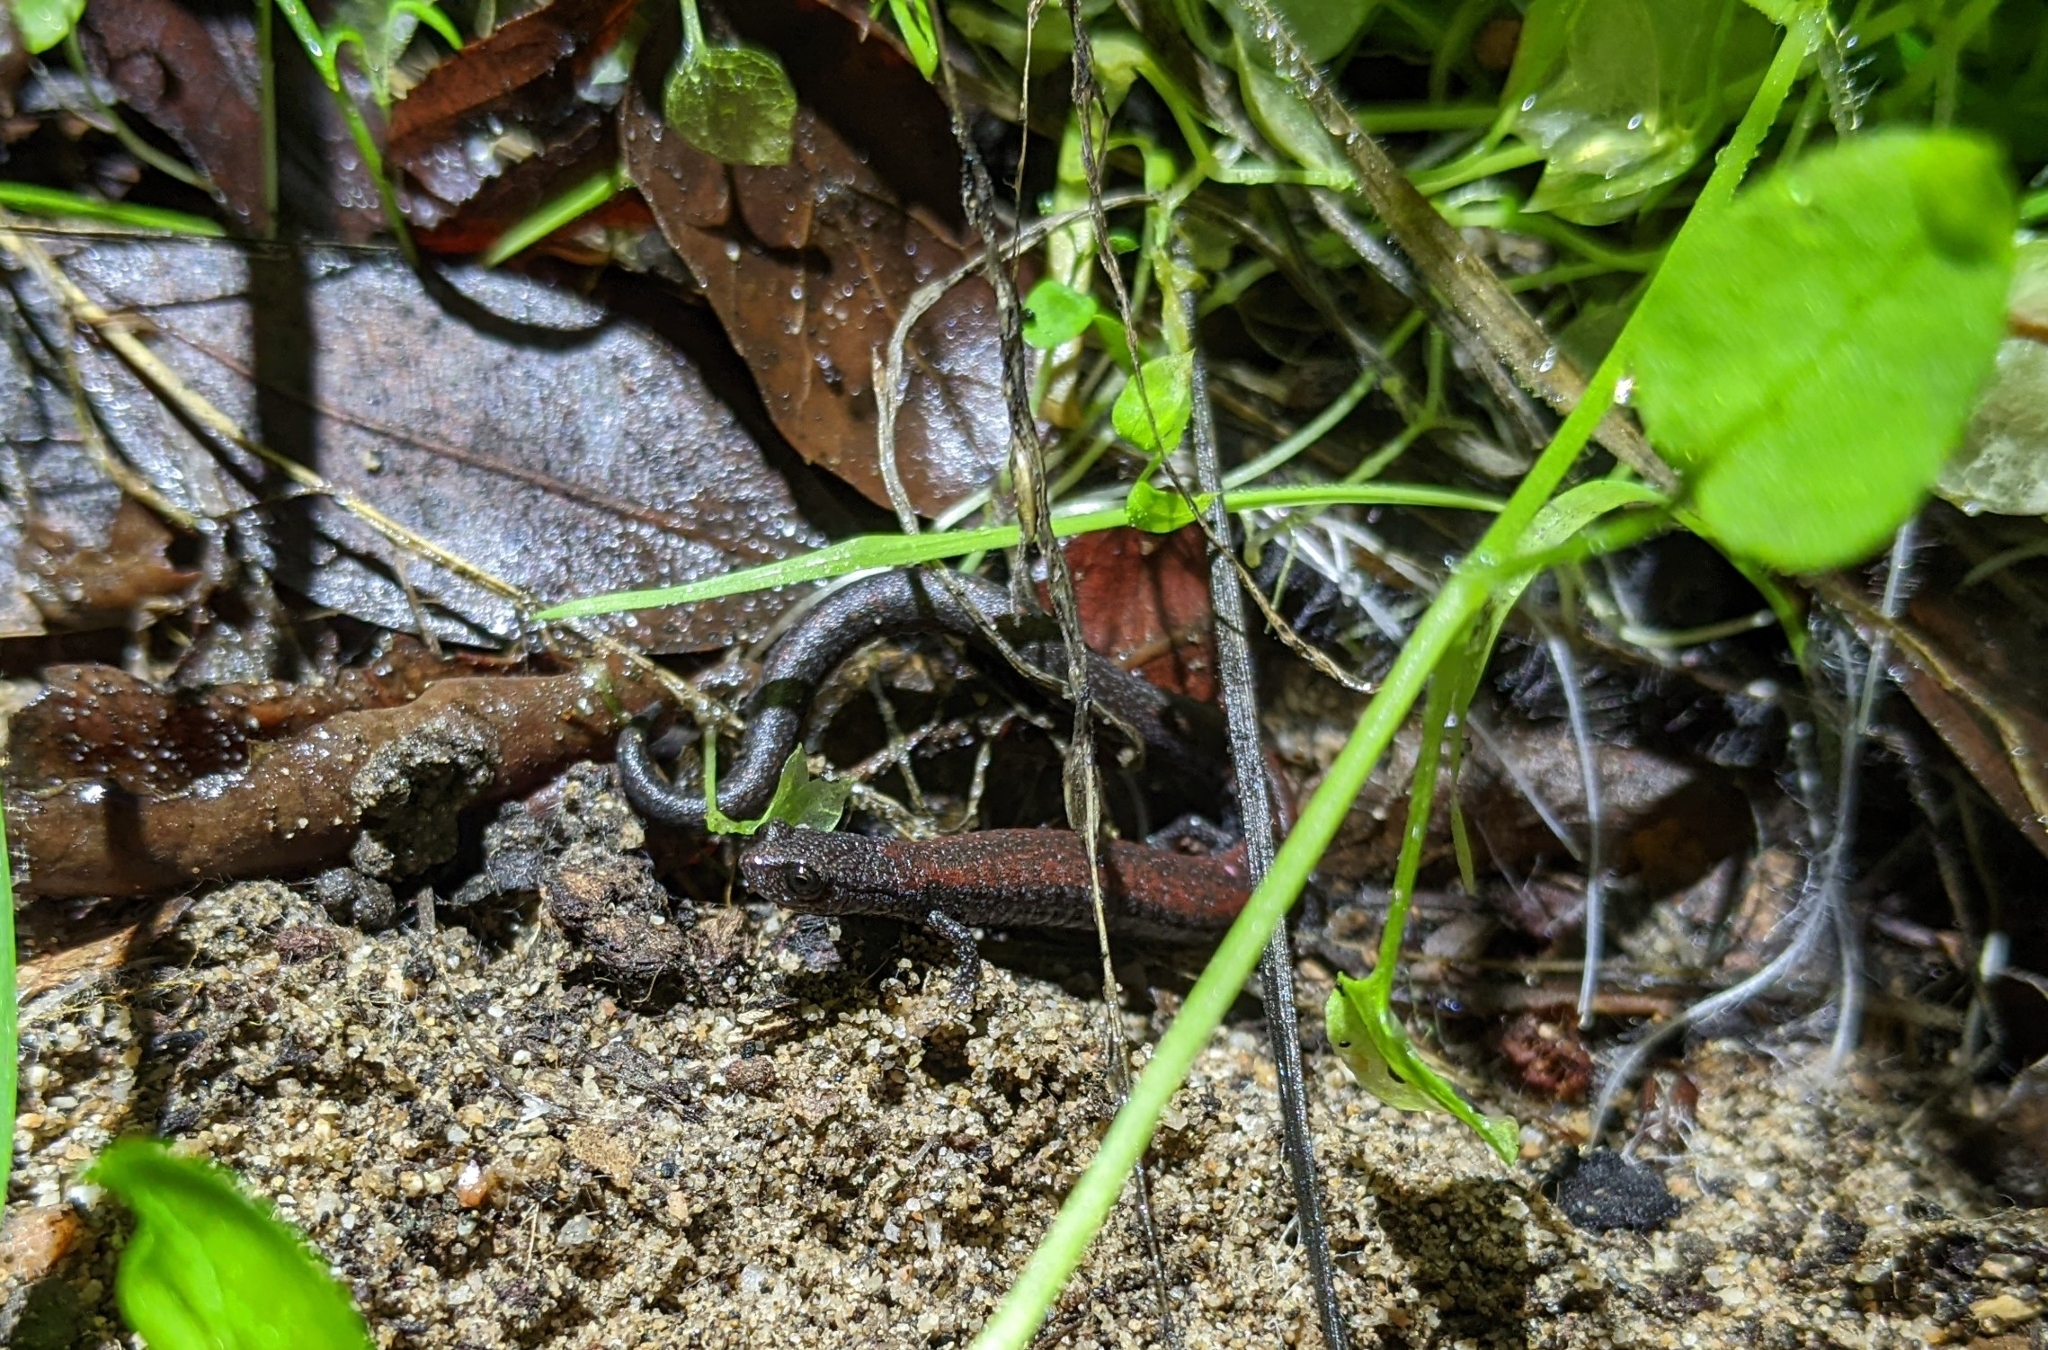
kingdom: Animalia
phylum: Chordata
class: Amphibia
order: Caudata
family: Plethodontidae
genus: Batrachoseps
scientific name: Batrachoseps nigriventris
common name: Black-bellied slender salamander
